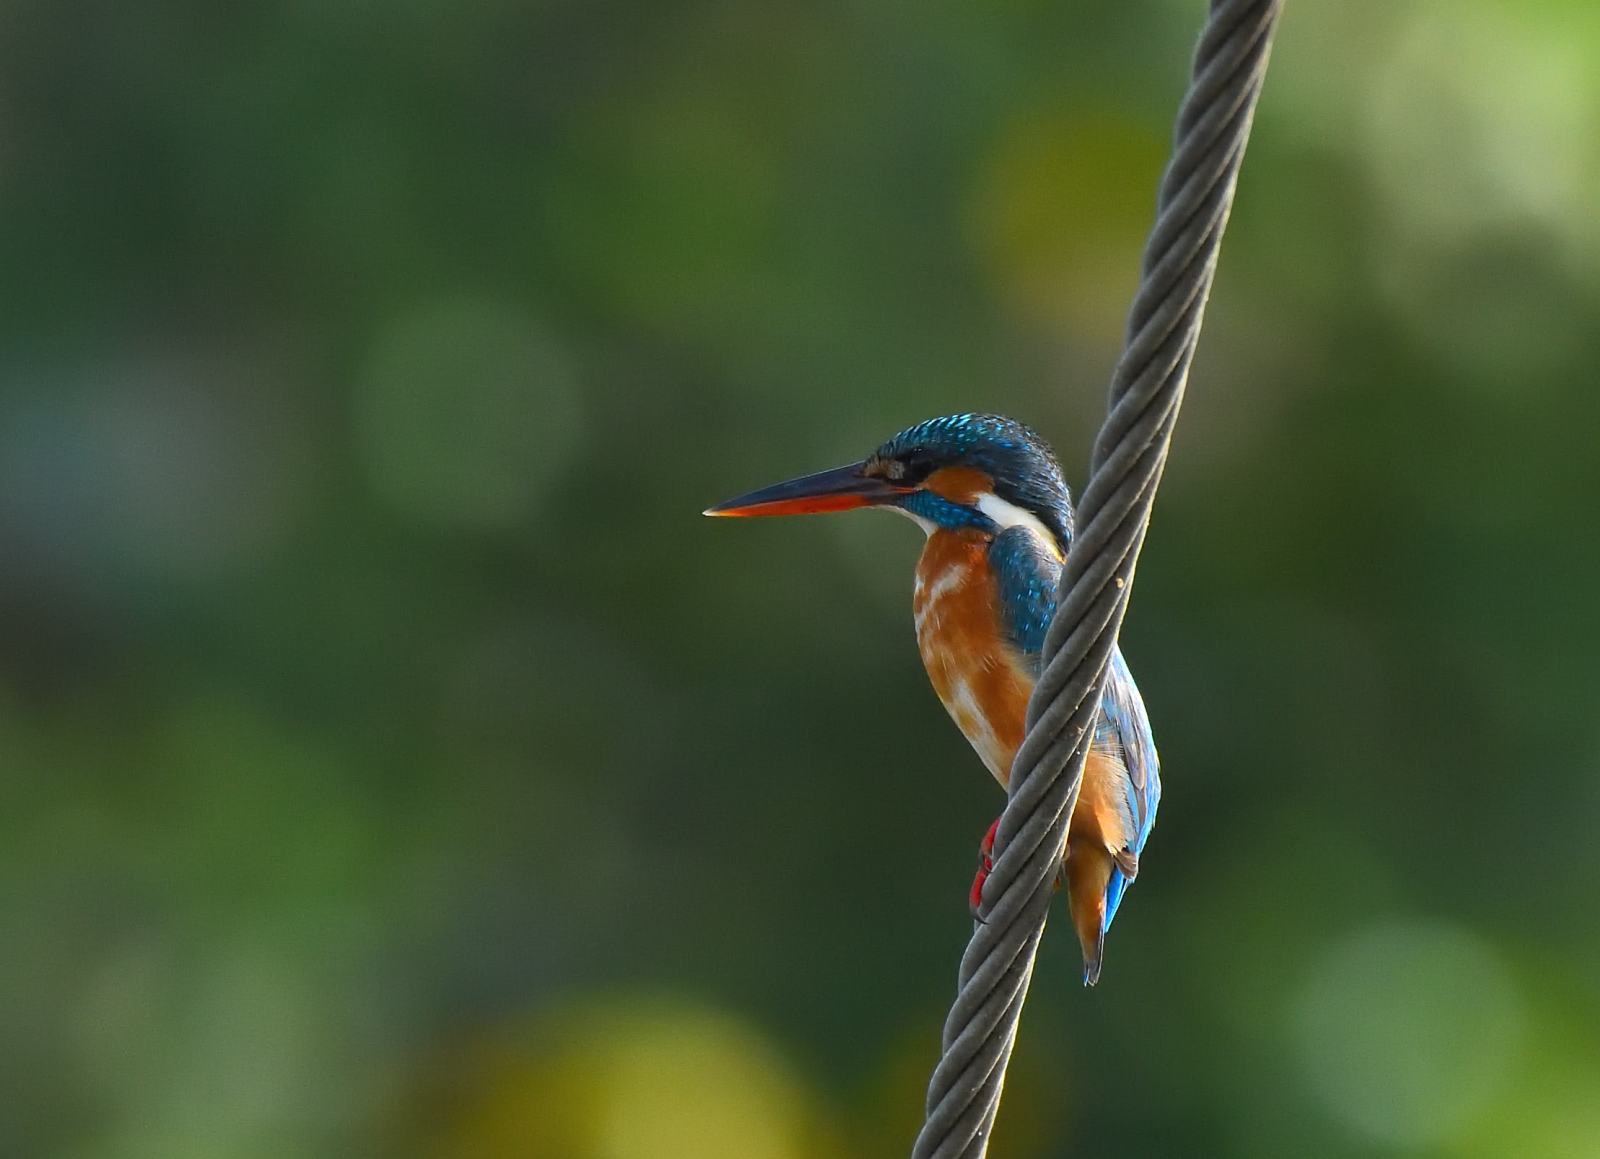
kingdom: Animalia
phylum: Chordata
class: Aves
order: Coraciiformes
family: Alcedinidae
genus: Alcedo
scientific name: Alcedo atthis
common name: Common kingfisher
